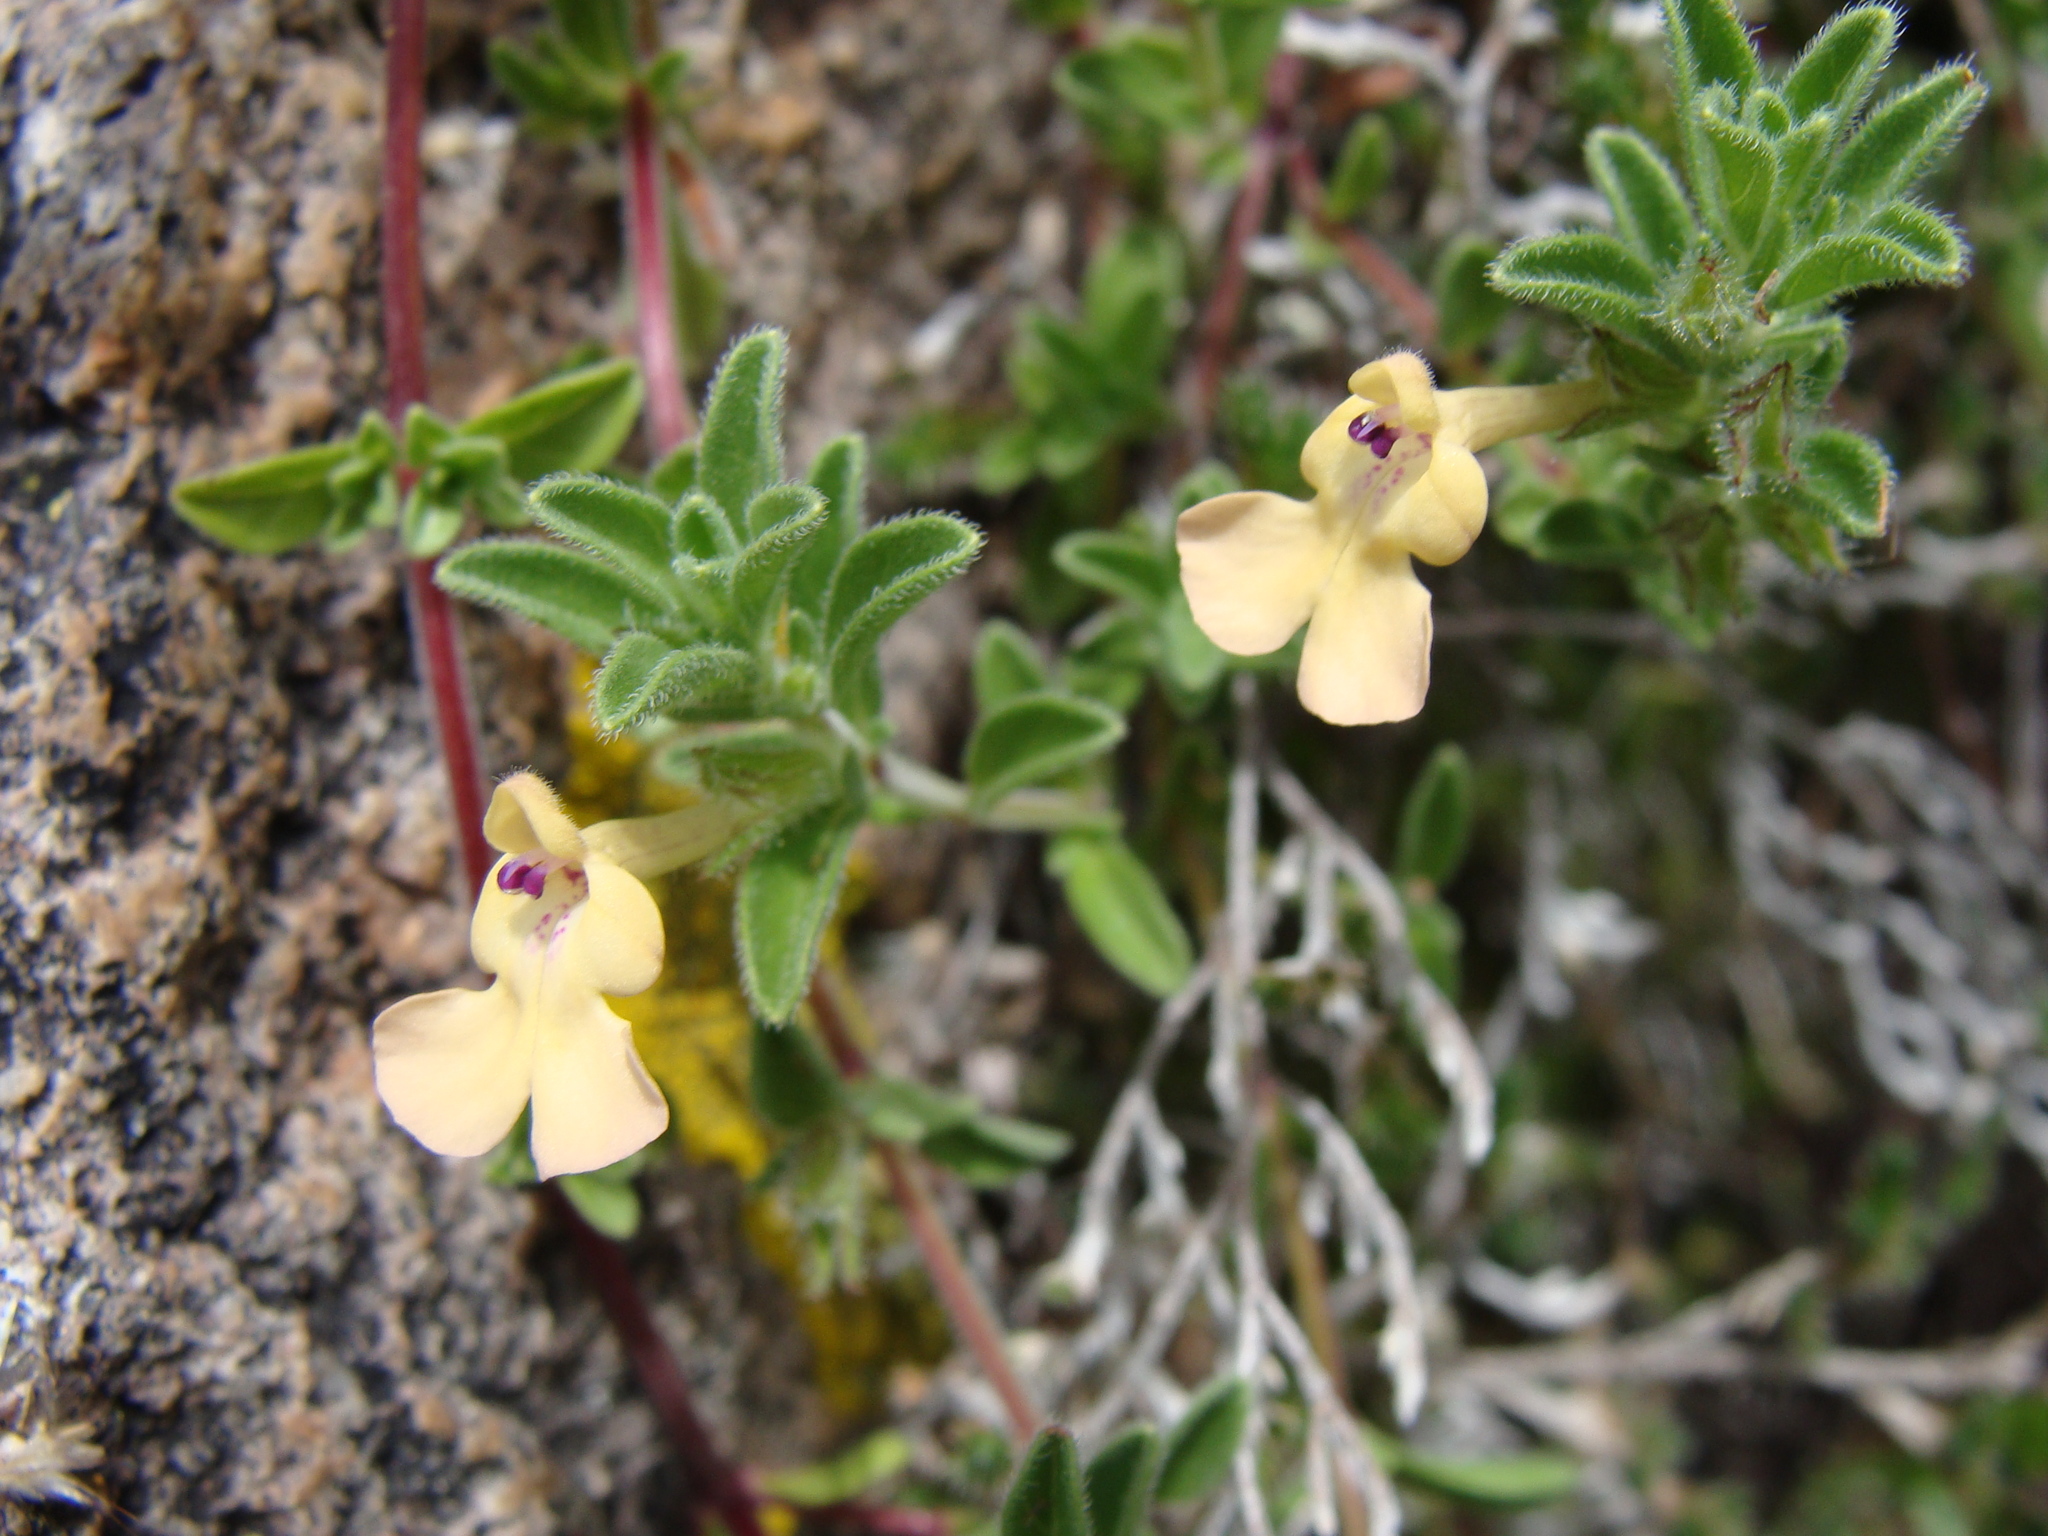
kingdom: Plantae
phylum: Tracheophyta
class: Magnoliopsida
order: Lamiales
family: Lamiaceae
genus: Salvia
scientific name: Salvia axillaris
